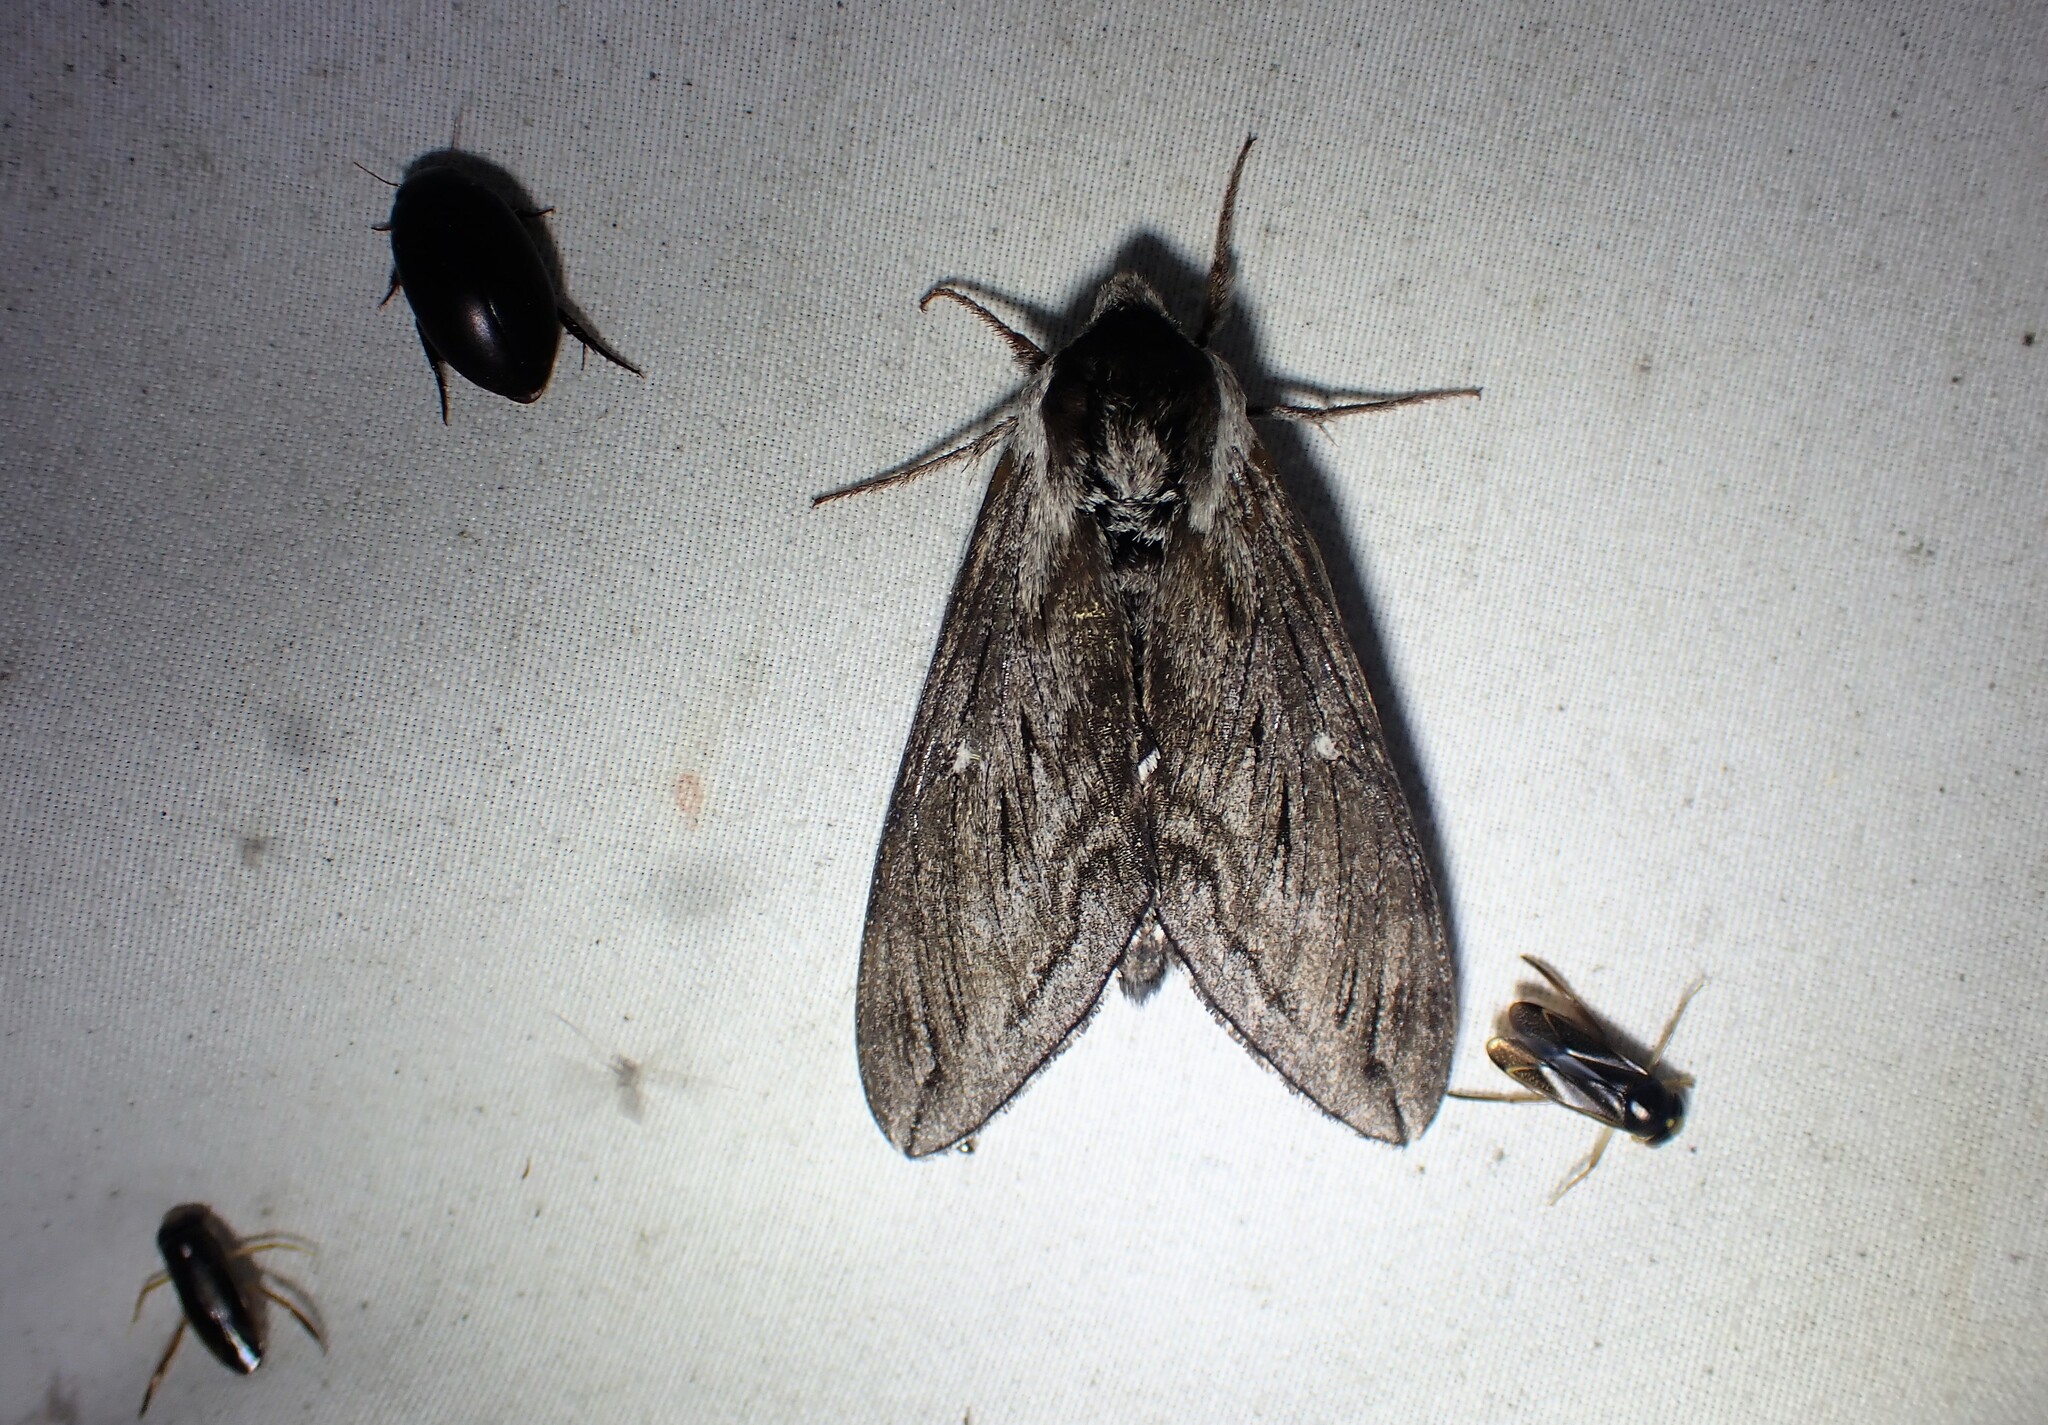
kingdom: Animalia
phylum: Arthropoda
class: Insecta
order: Lepidoptera
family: Sphingidae
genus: Sphinx
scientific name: Sphinx poecila
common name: Northern apple sphinx
